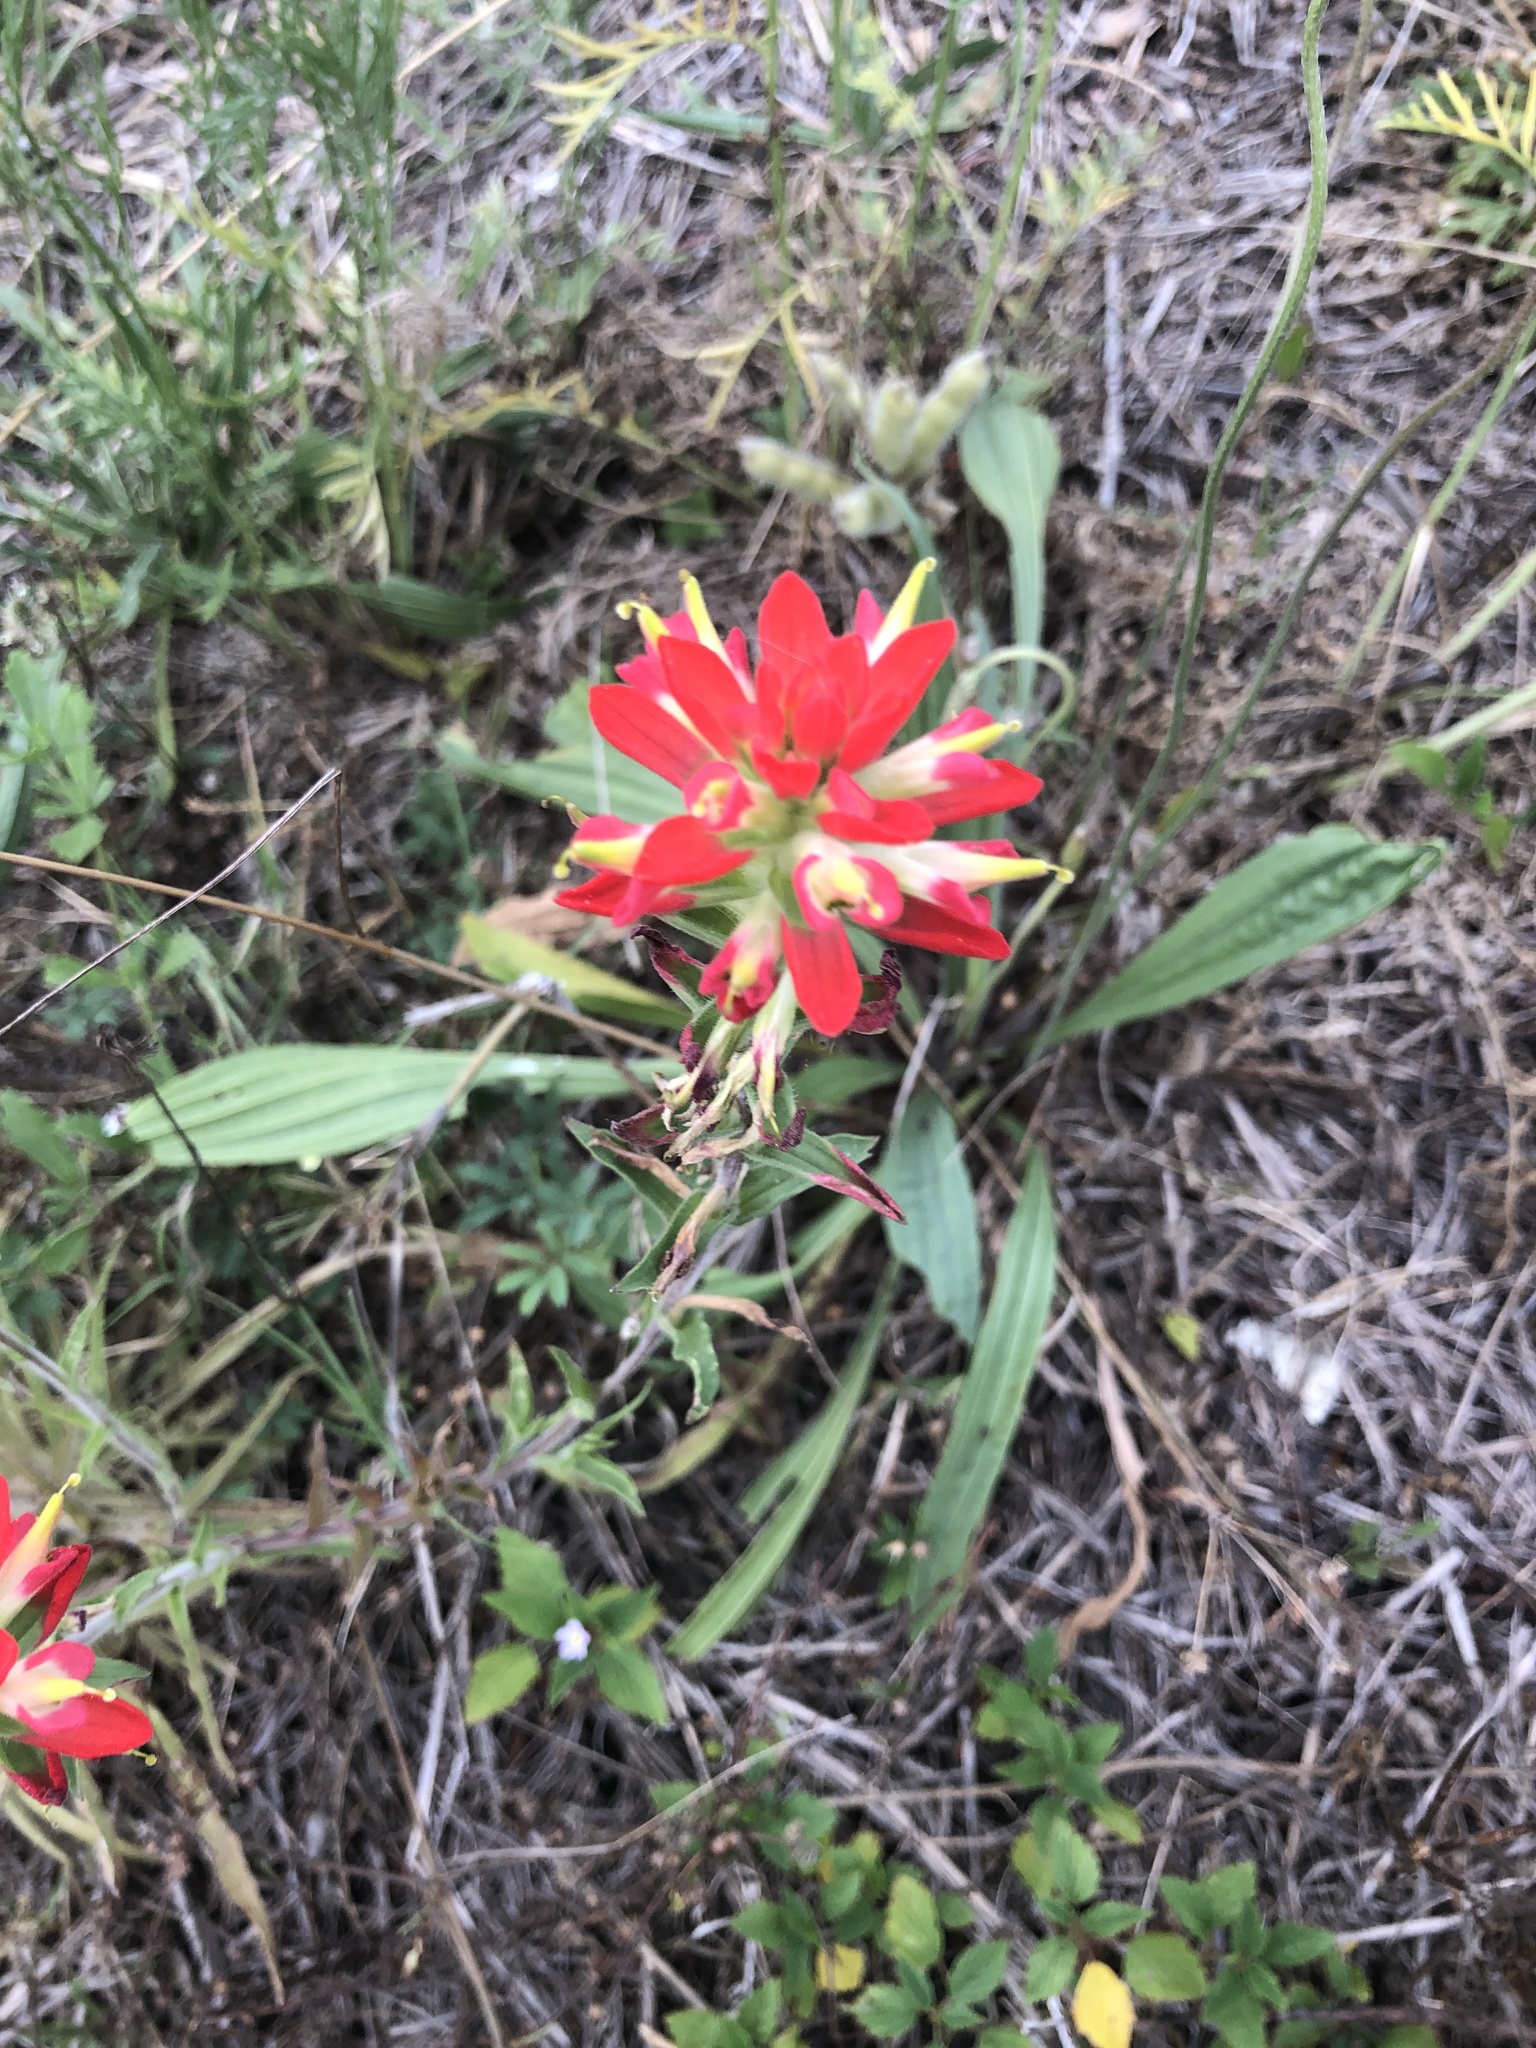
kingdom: Plantae
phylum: Tracheophyta
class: Magnoliopsida
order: Lamiales
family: Orobanchaceae
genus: Castilleja
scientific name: Castilleja indivisa
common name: Texas paintbrush
